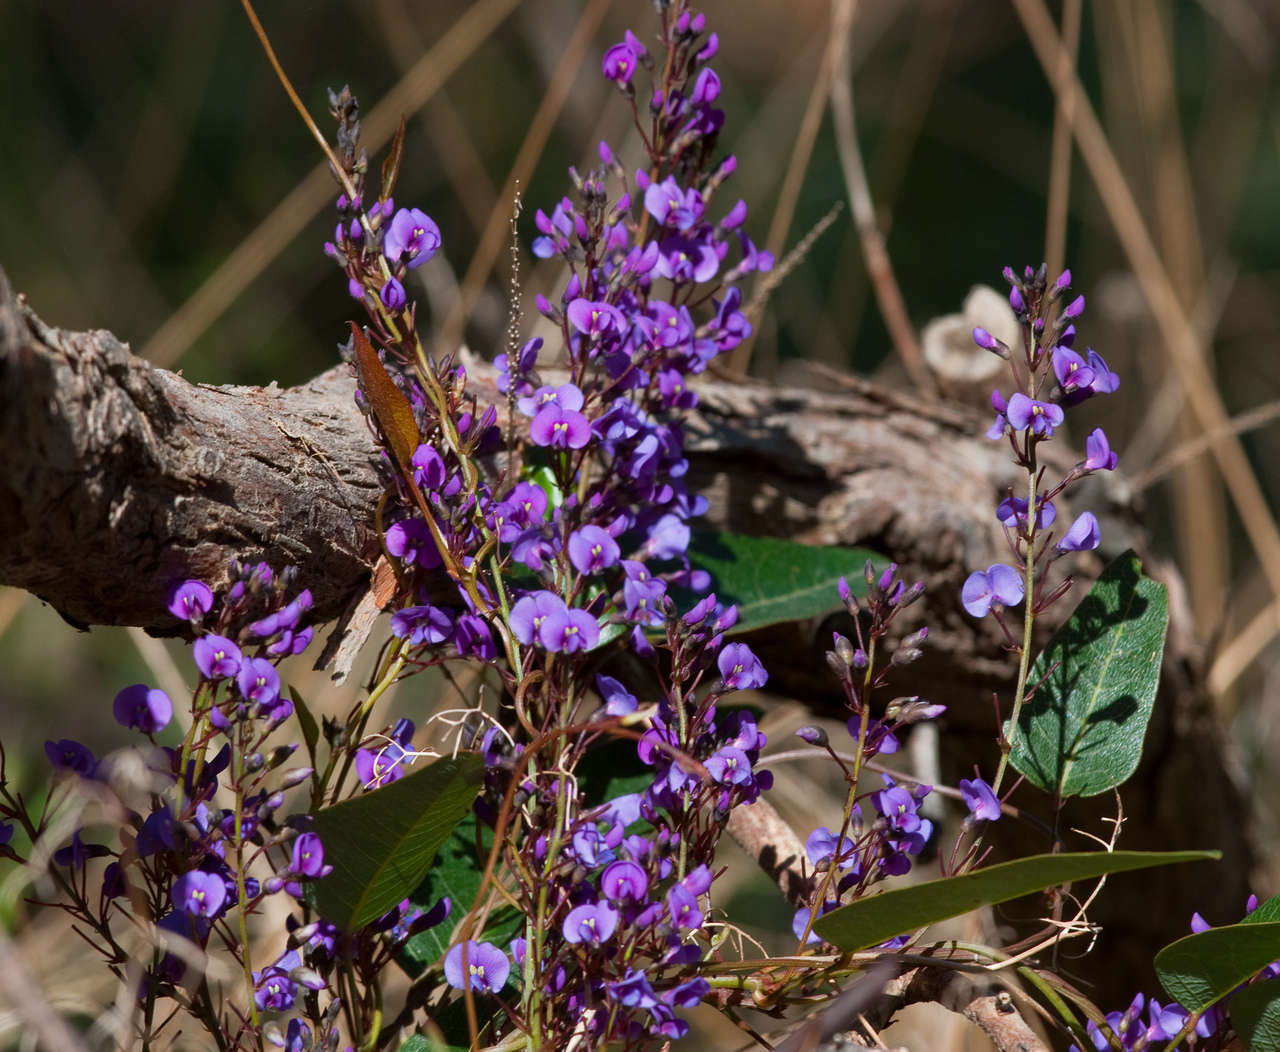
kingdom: Plantae
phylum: Tracheophyta
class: Magnoliopsida
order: Fabales
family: Fabaceae
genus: Hardenbergia
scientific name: Hardenbergia violacea
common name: Coral-pea
